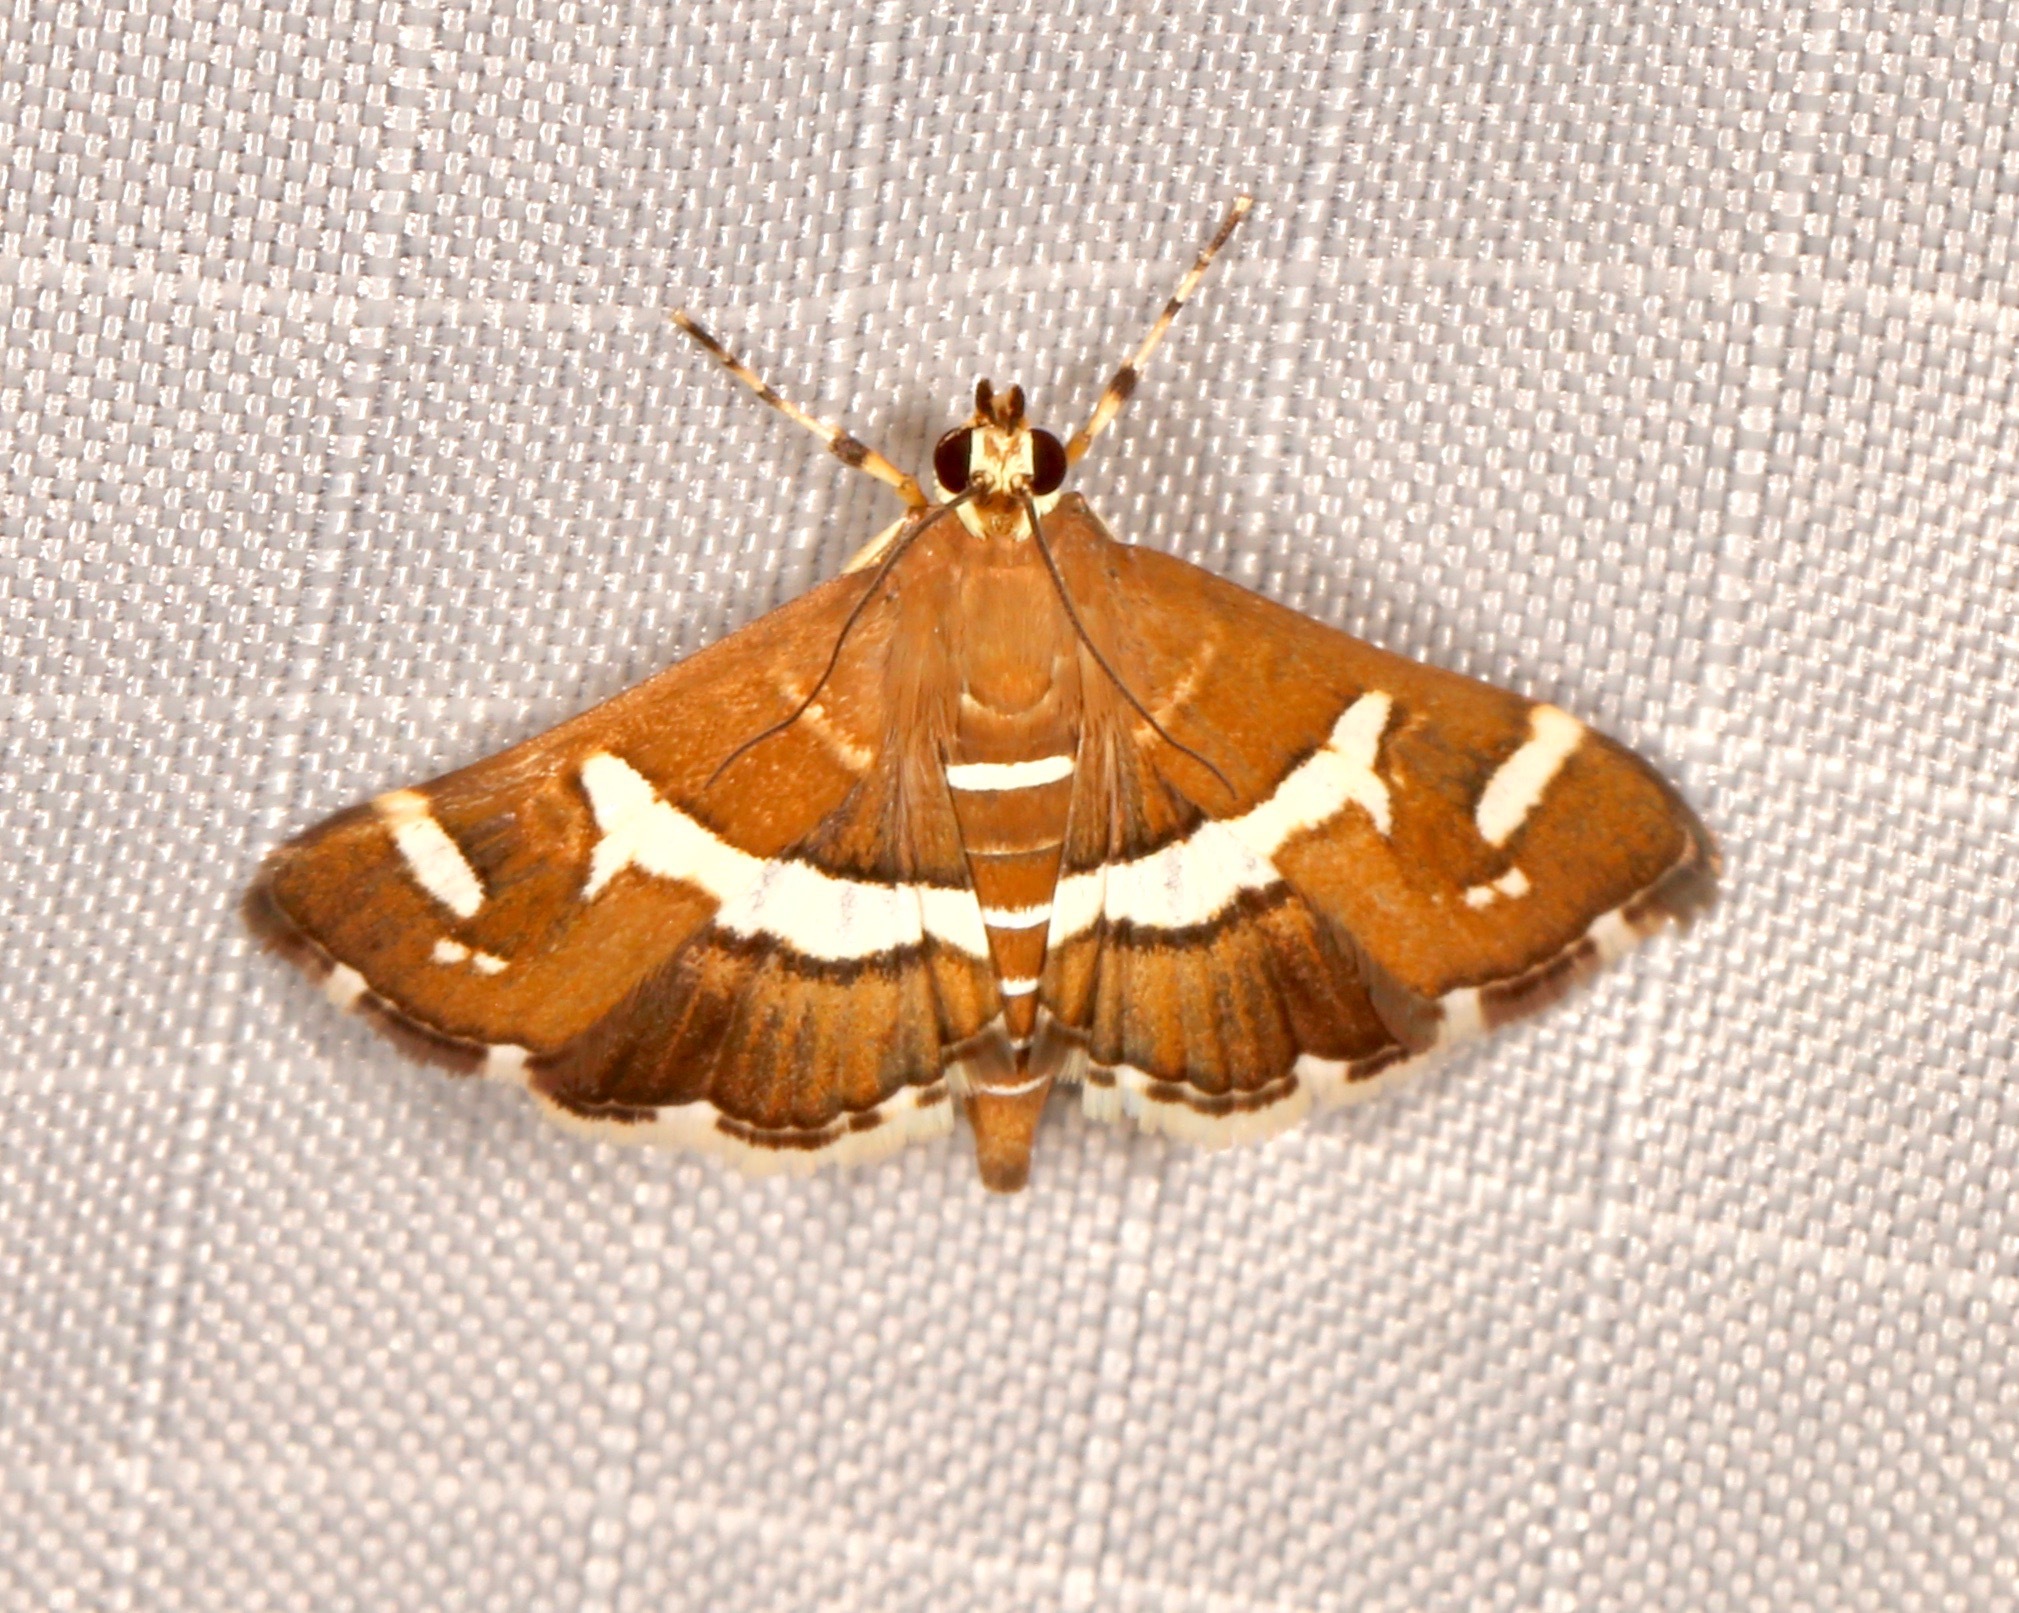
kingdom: Animalia
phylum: Arthropoda
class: Insecta
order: Lepidoptera
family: Crambidae
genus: Spoladea
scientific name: Spoladea recurvalis
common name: Beet webworm moth
